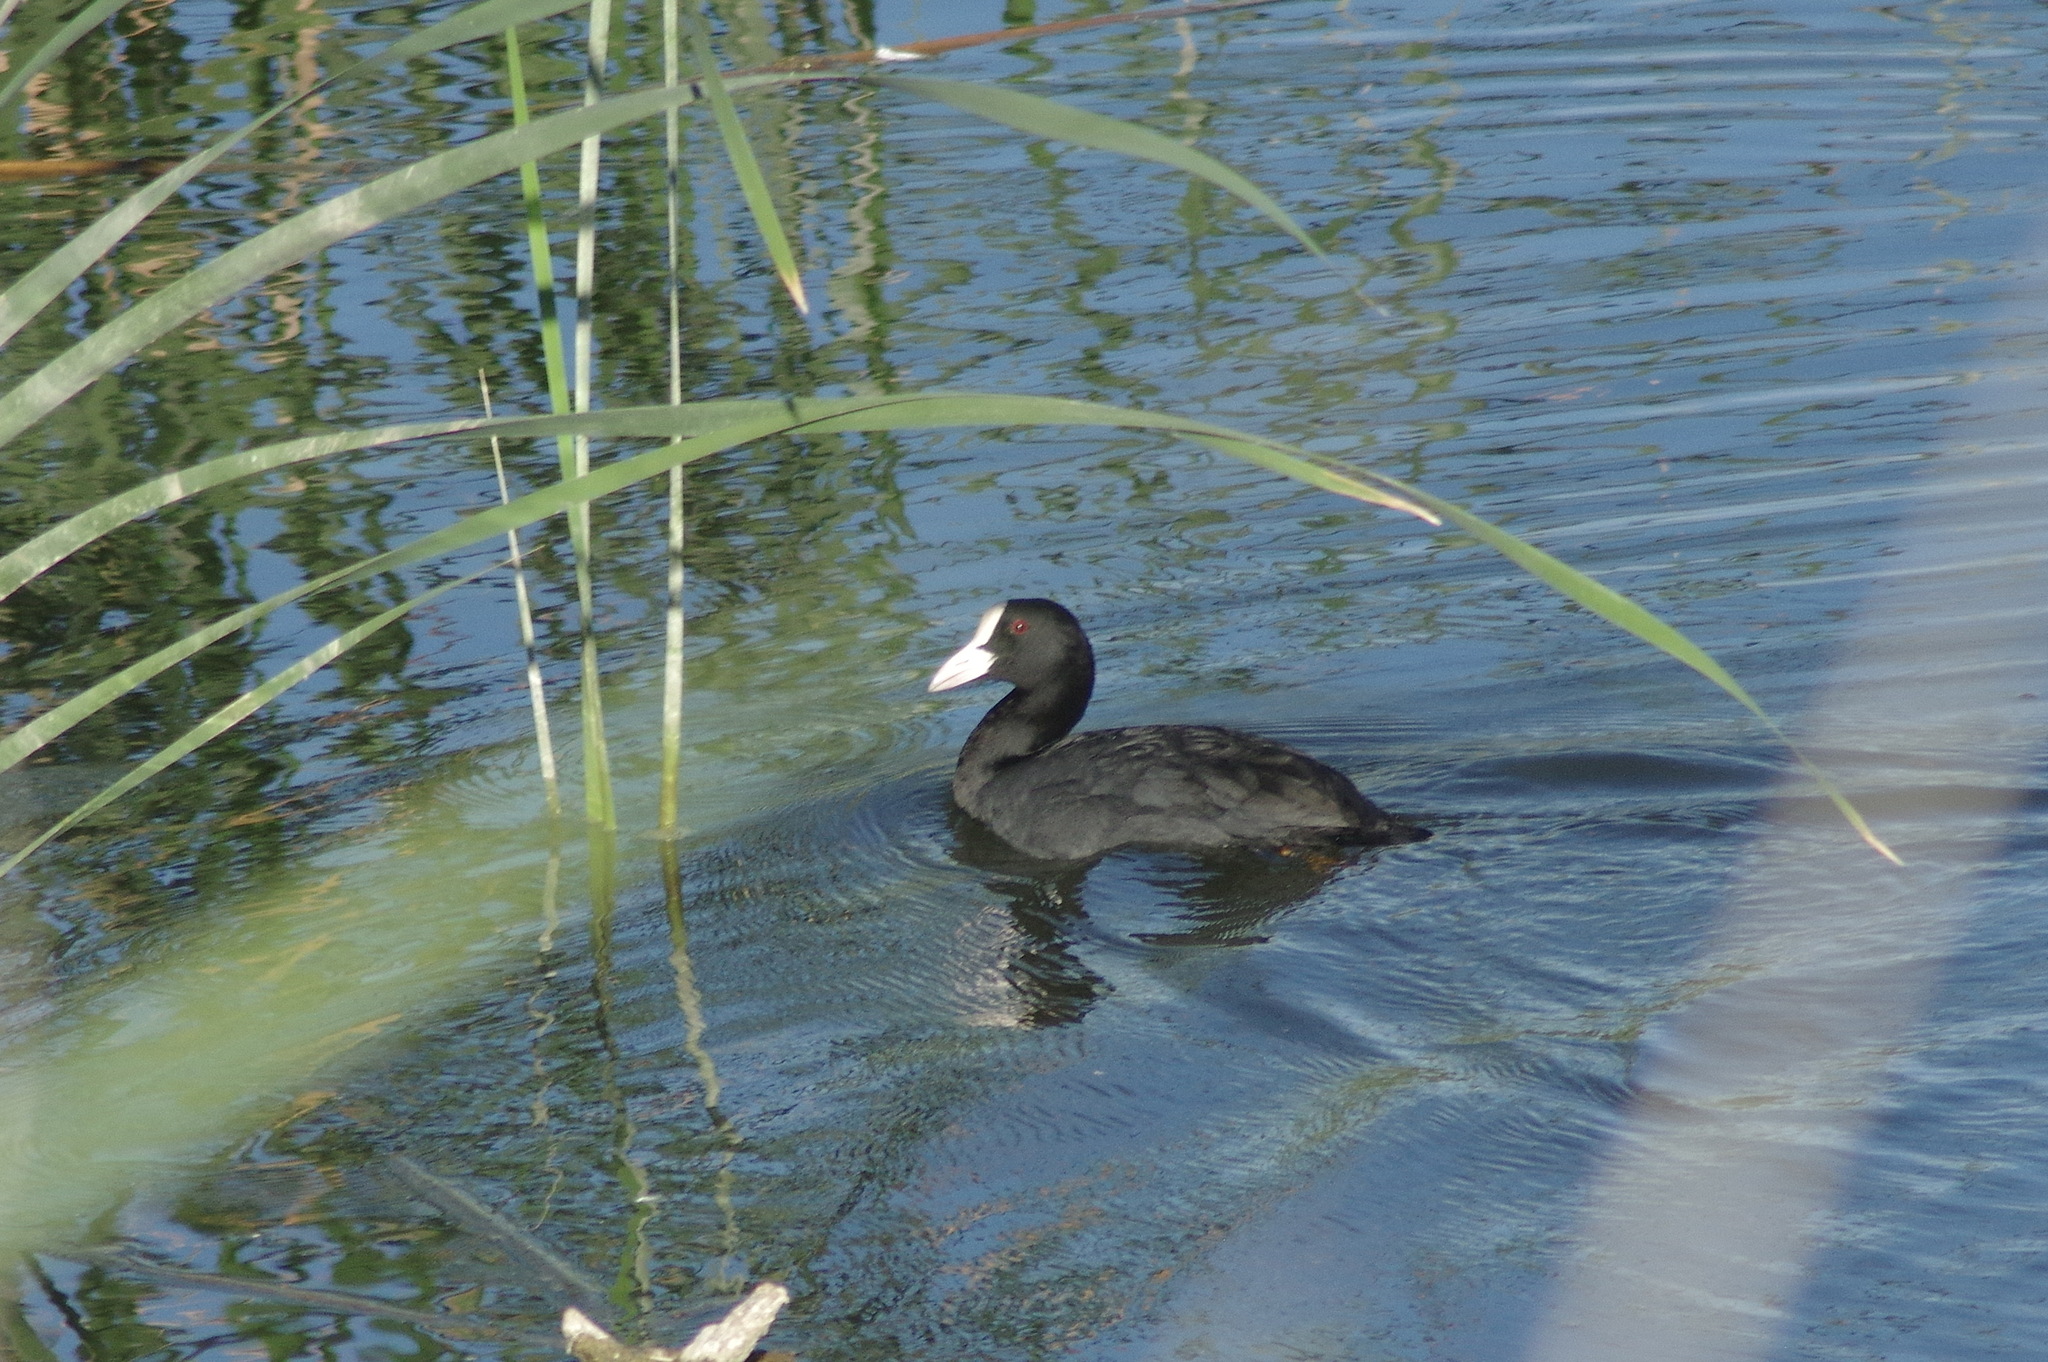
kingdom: Animalia
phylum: Chordata
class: Aves
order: Gruiformes
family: Rallidae
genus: Fulica
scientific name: Fulica atra
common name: Eurasian coot
